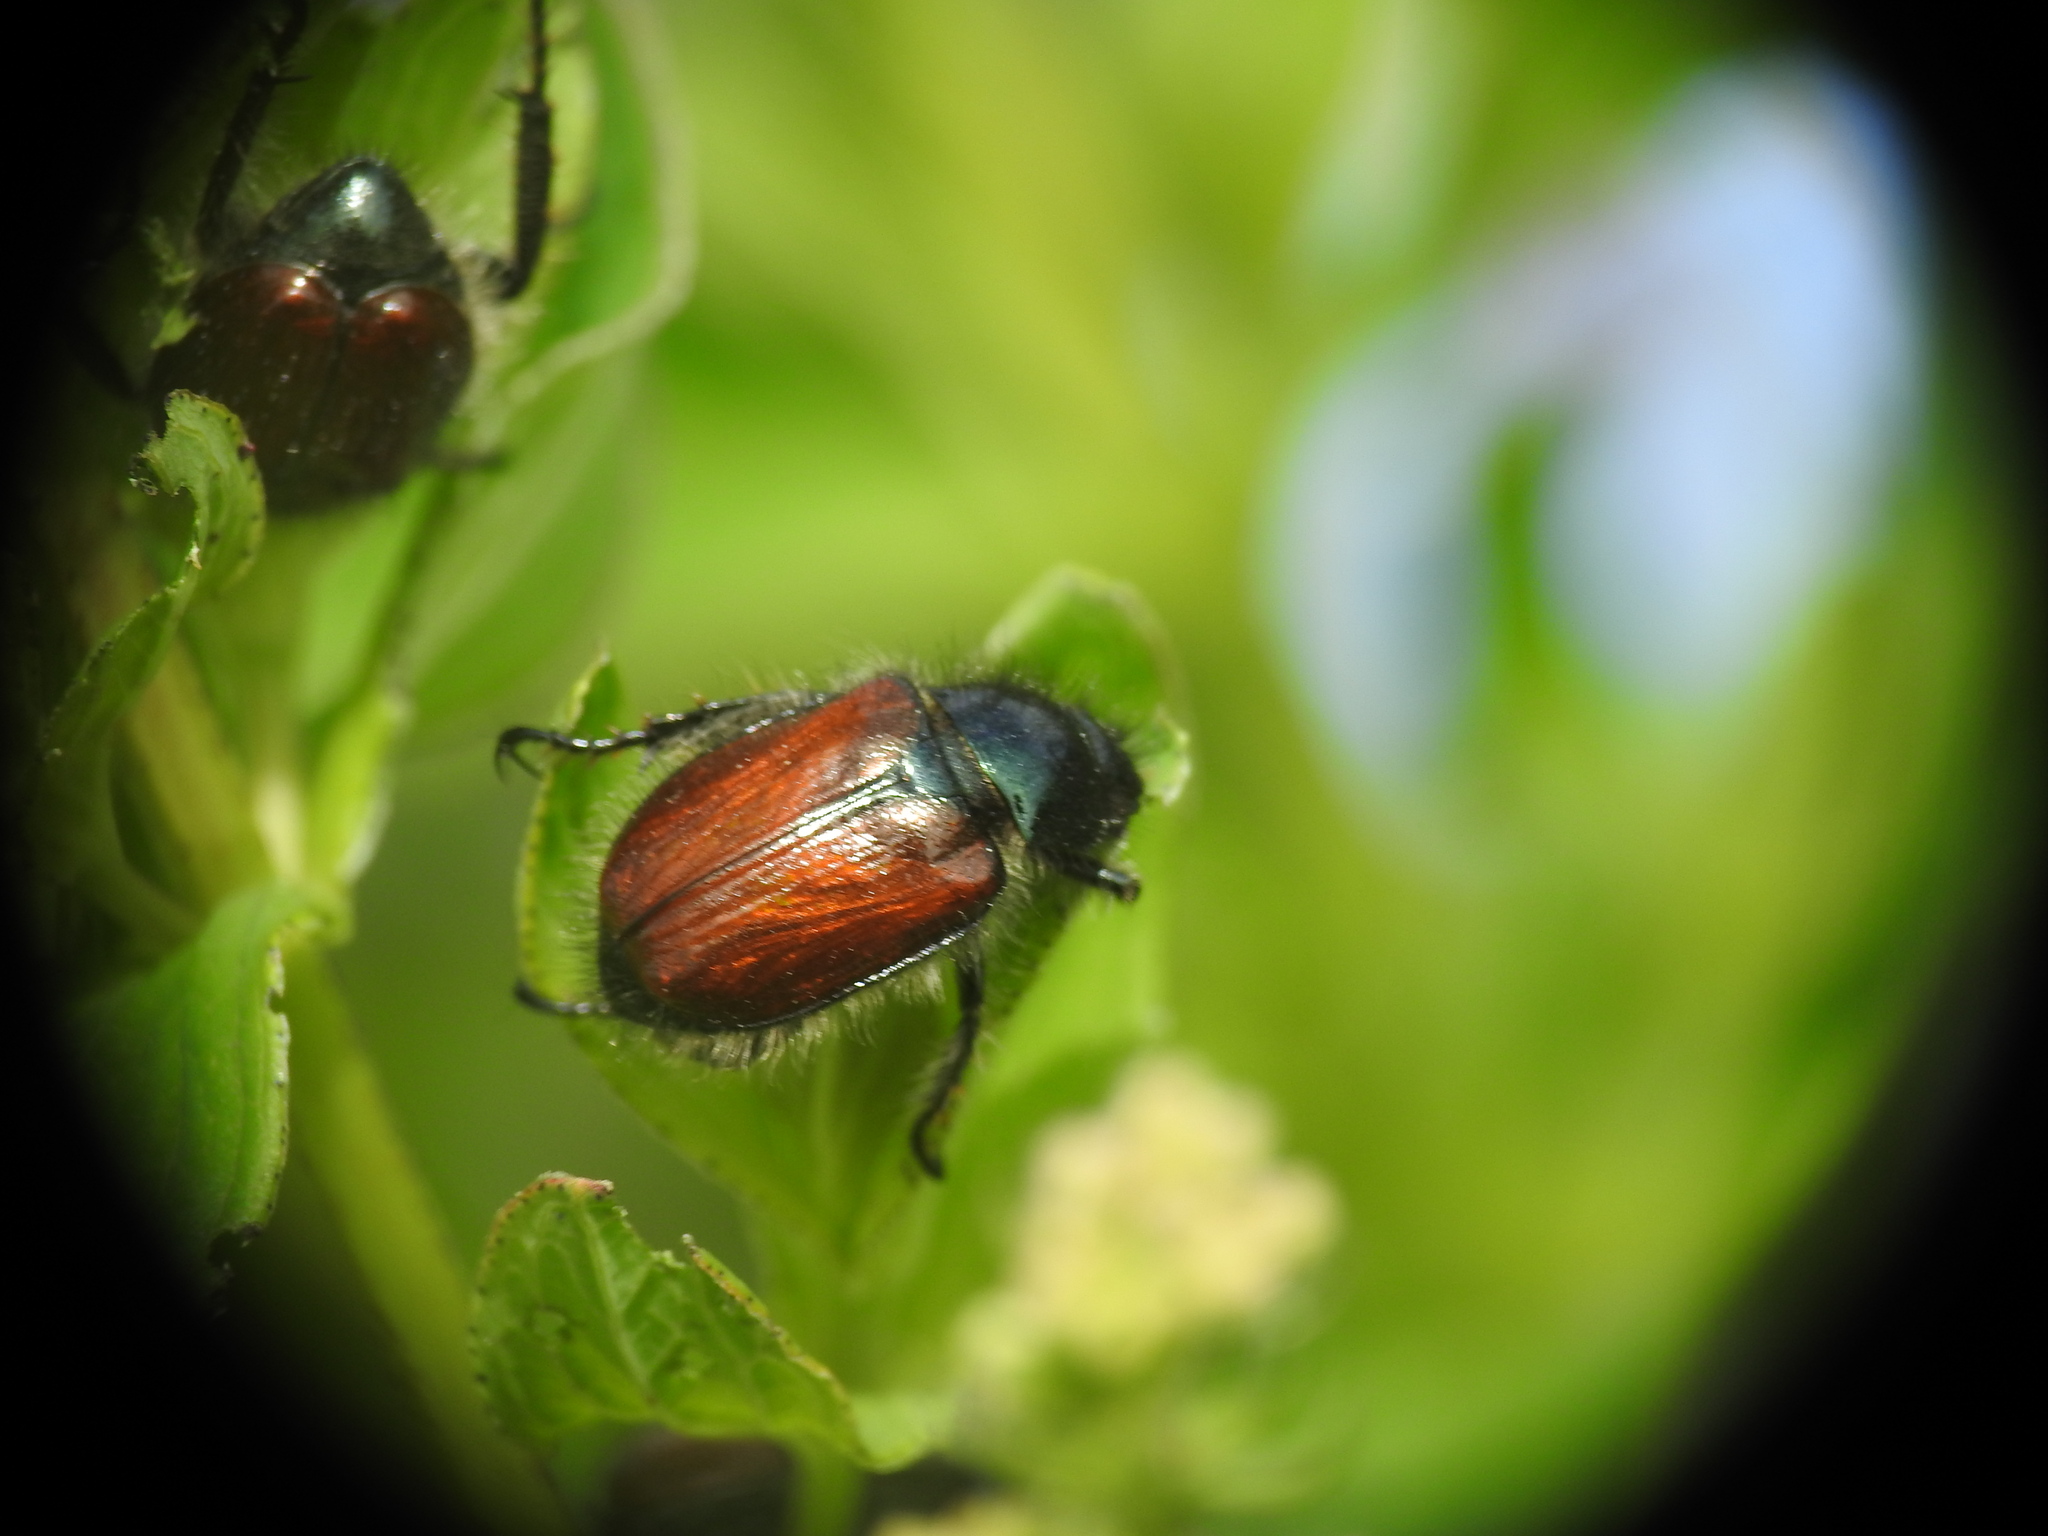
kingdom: Animalia
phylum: Arthropoda
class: Insecta
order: Coleoptera
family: Scarabaeidae
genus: Phyllopertha
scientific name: Phyllopertha horticola
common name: Garden chafer
